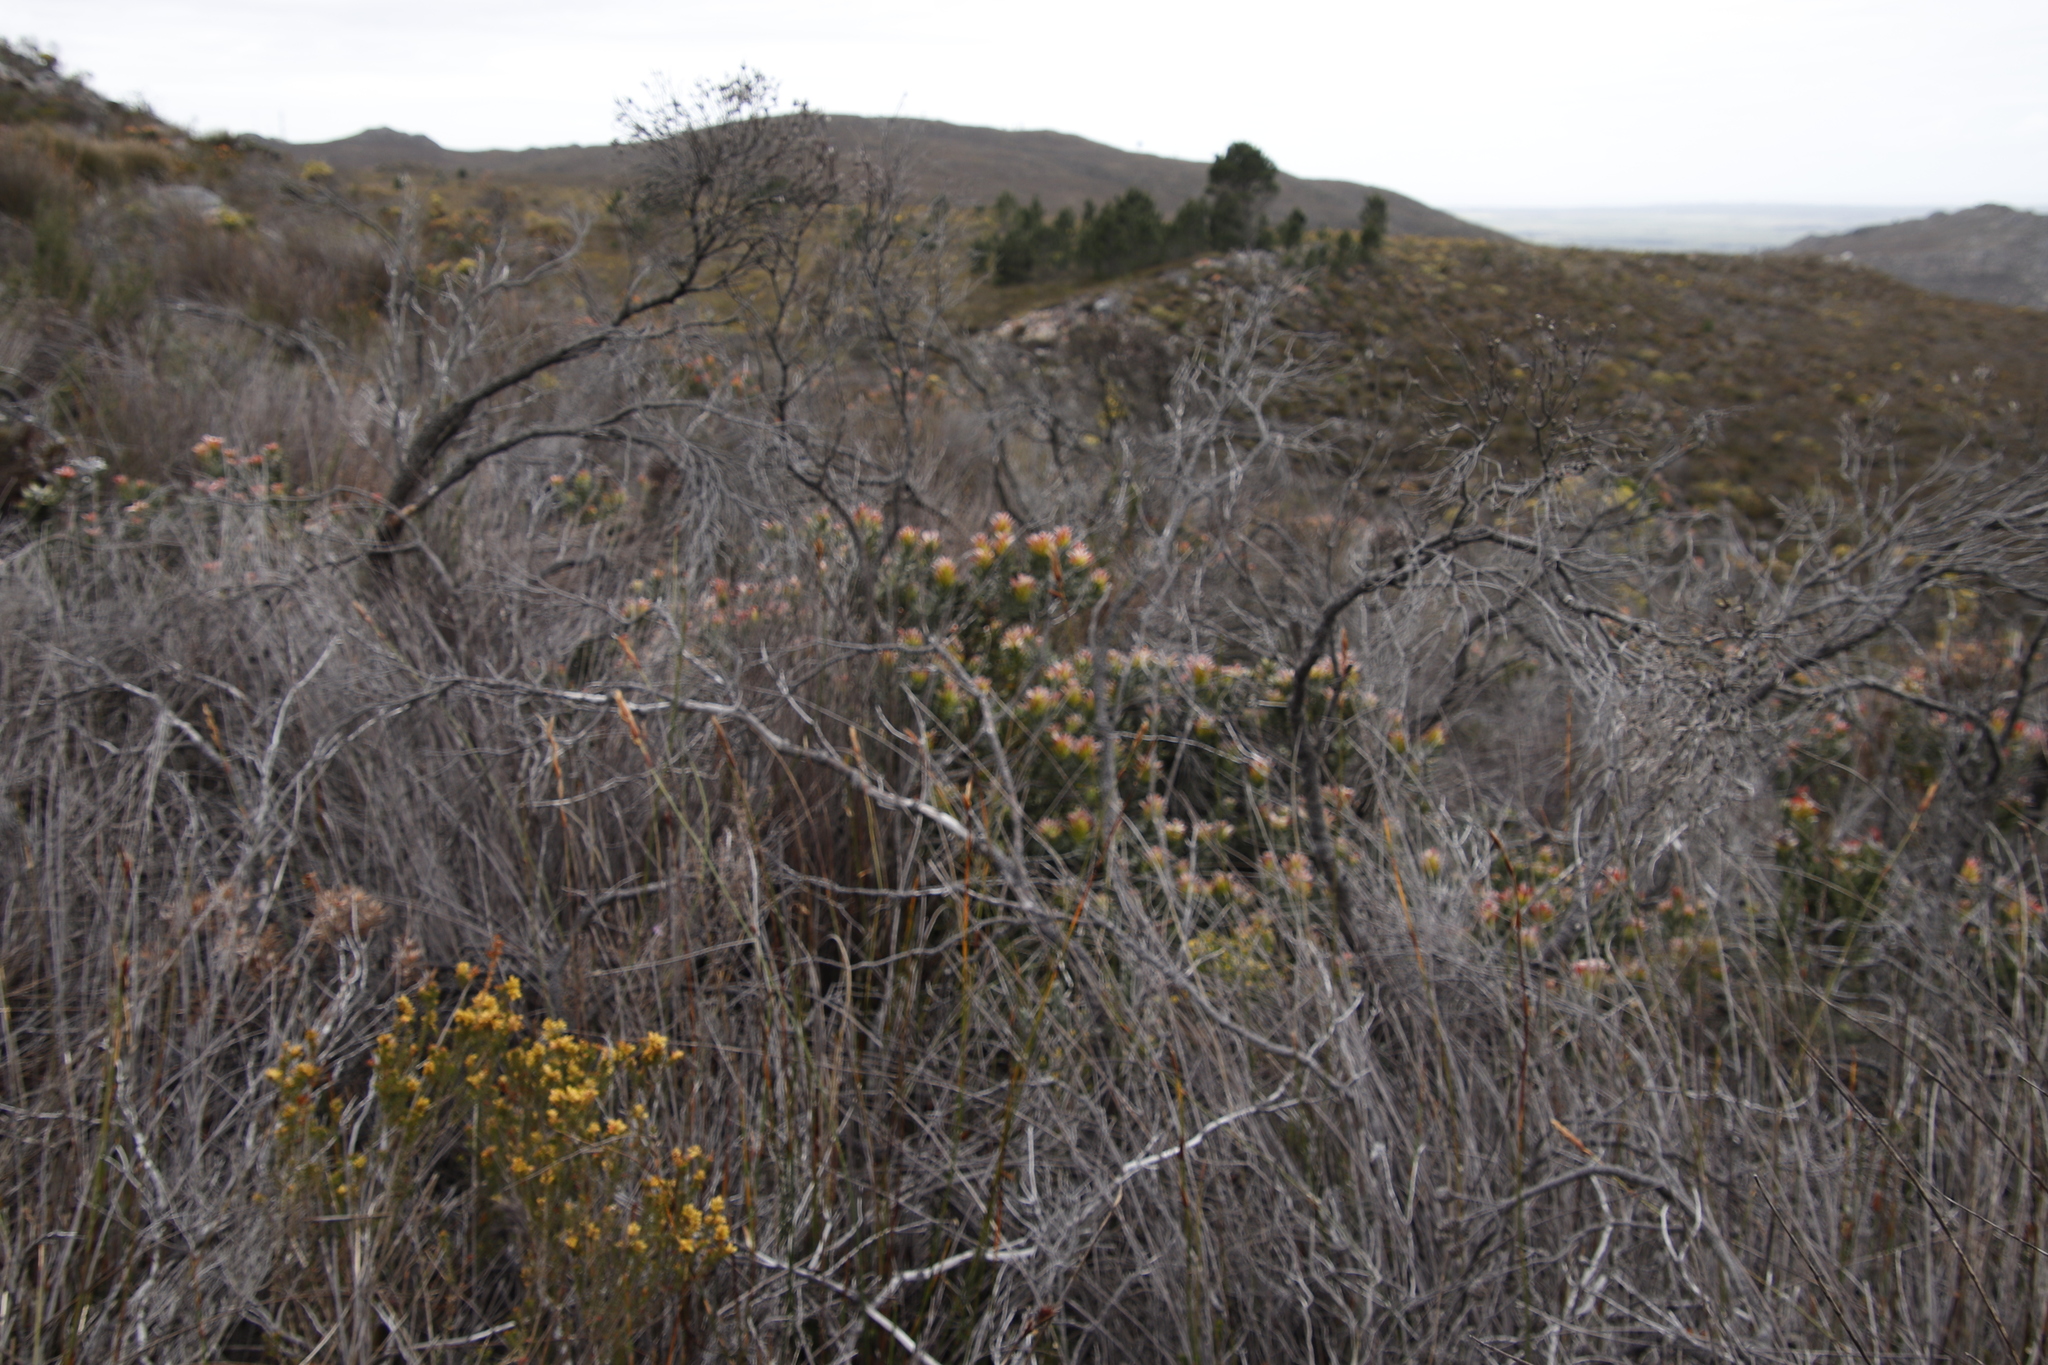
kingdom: Plantae
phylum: Tracheophyta
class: Magnoliopsida
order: Proteales
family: Proteaceae
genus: Mimetes
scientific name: Mimetes cucullatus
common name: Common pagoda
